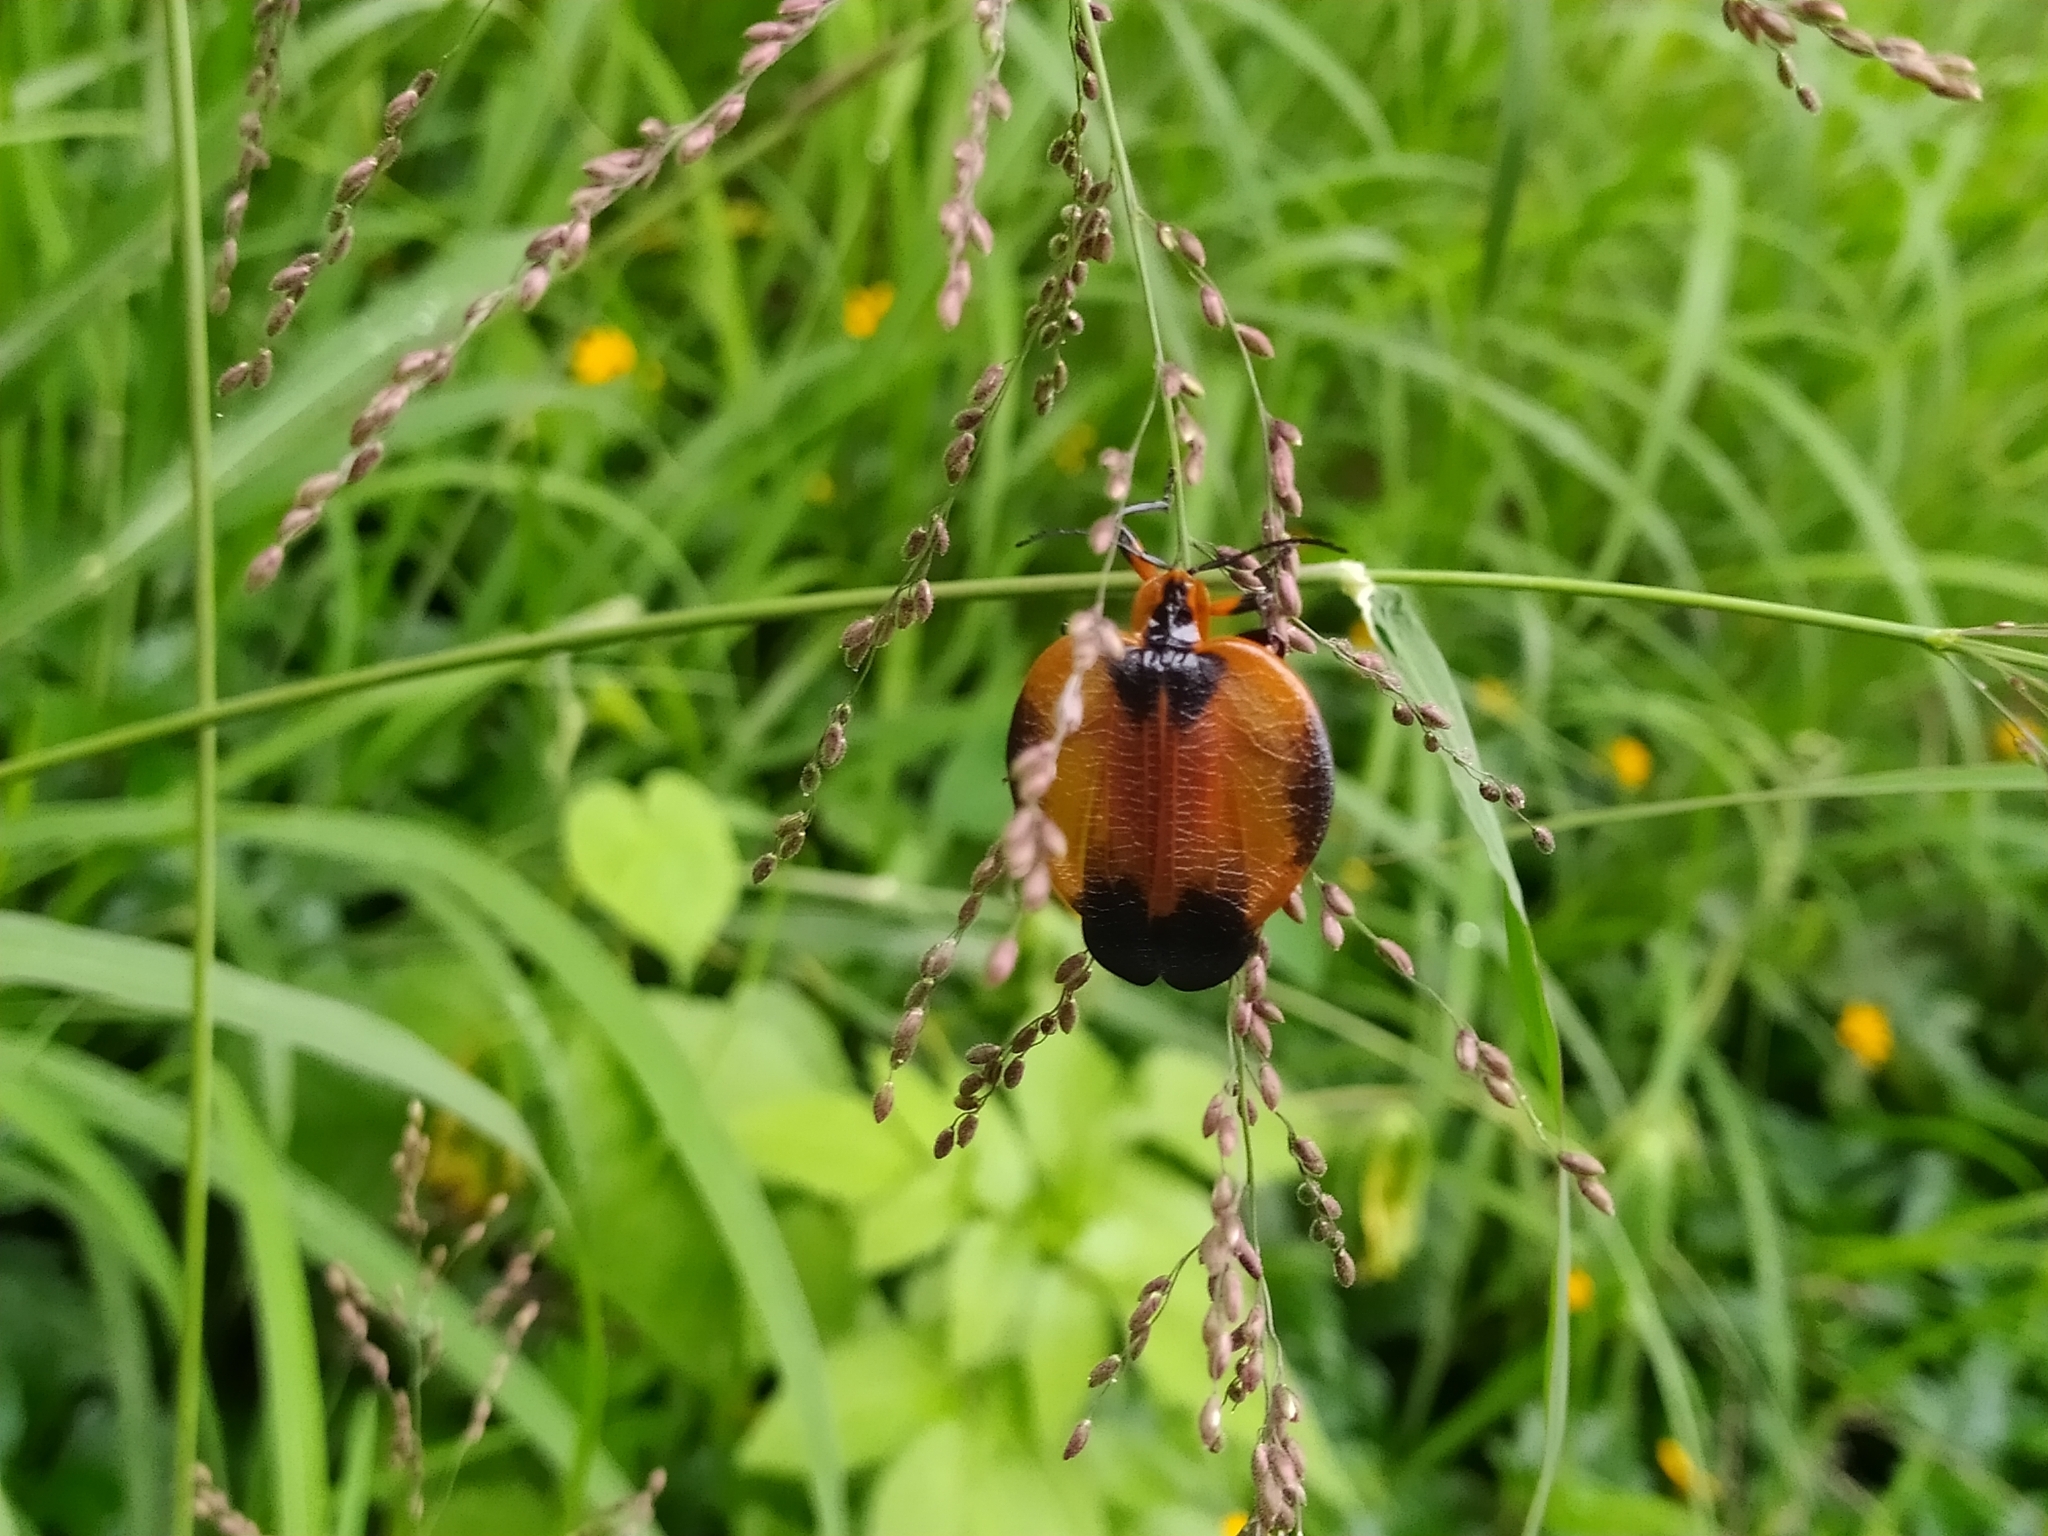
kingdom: Animalia
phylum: Arthropoda
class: Insecta
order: Coleoptera
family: Lycidae
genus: Lycus
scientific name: Lycus
